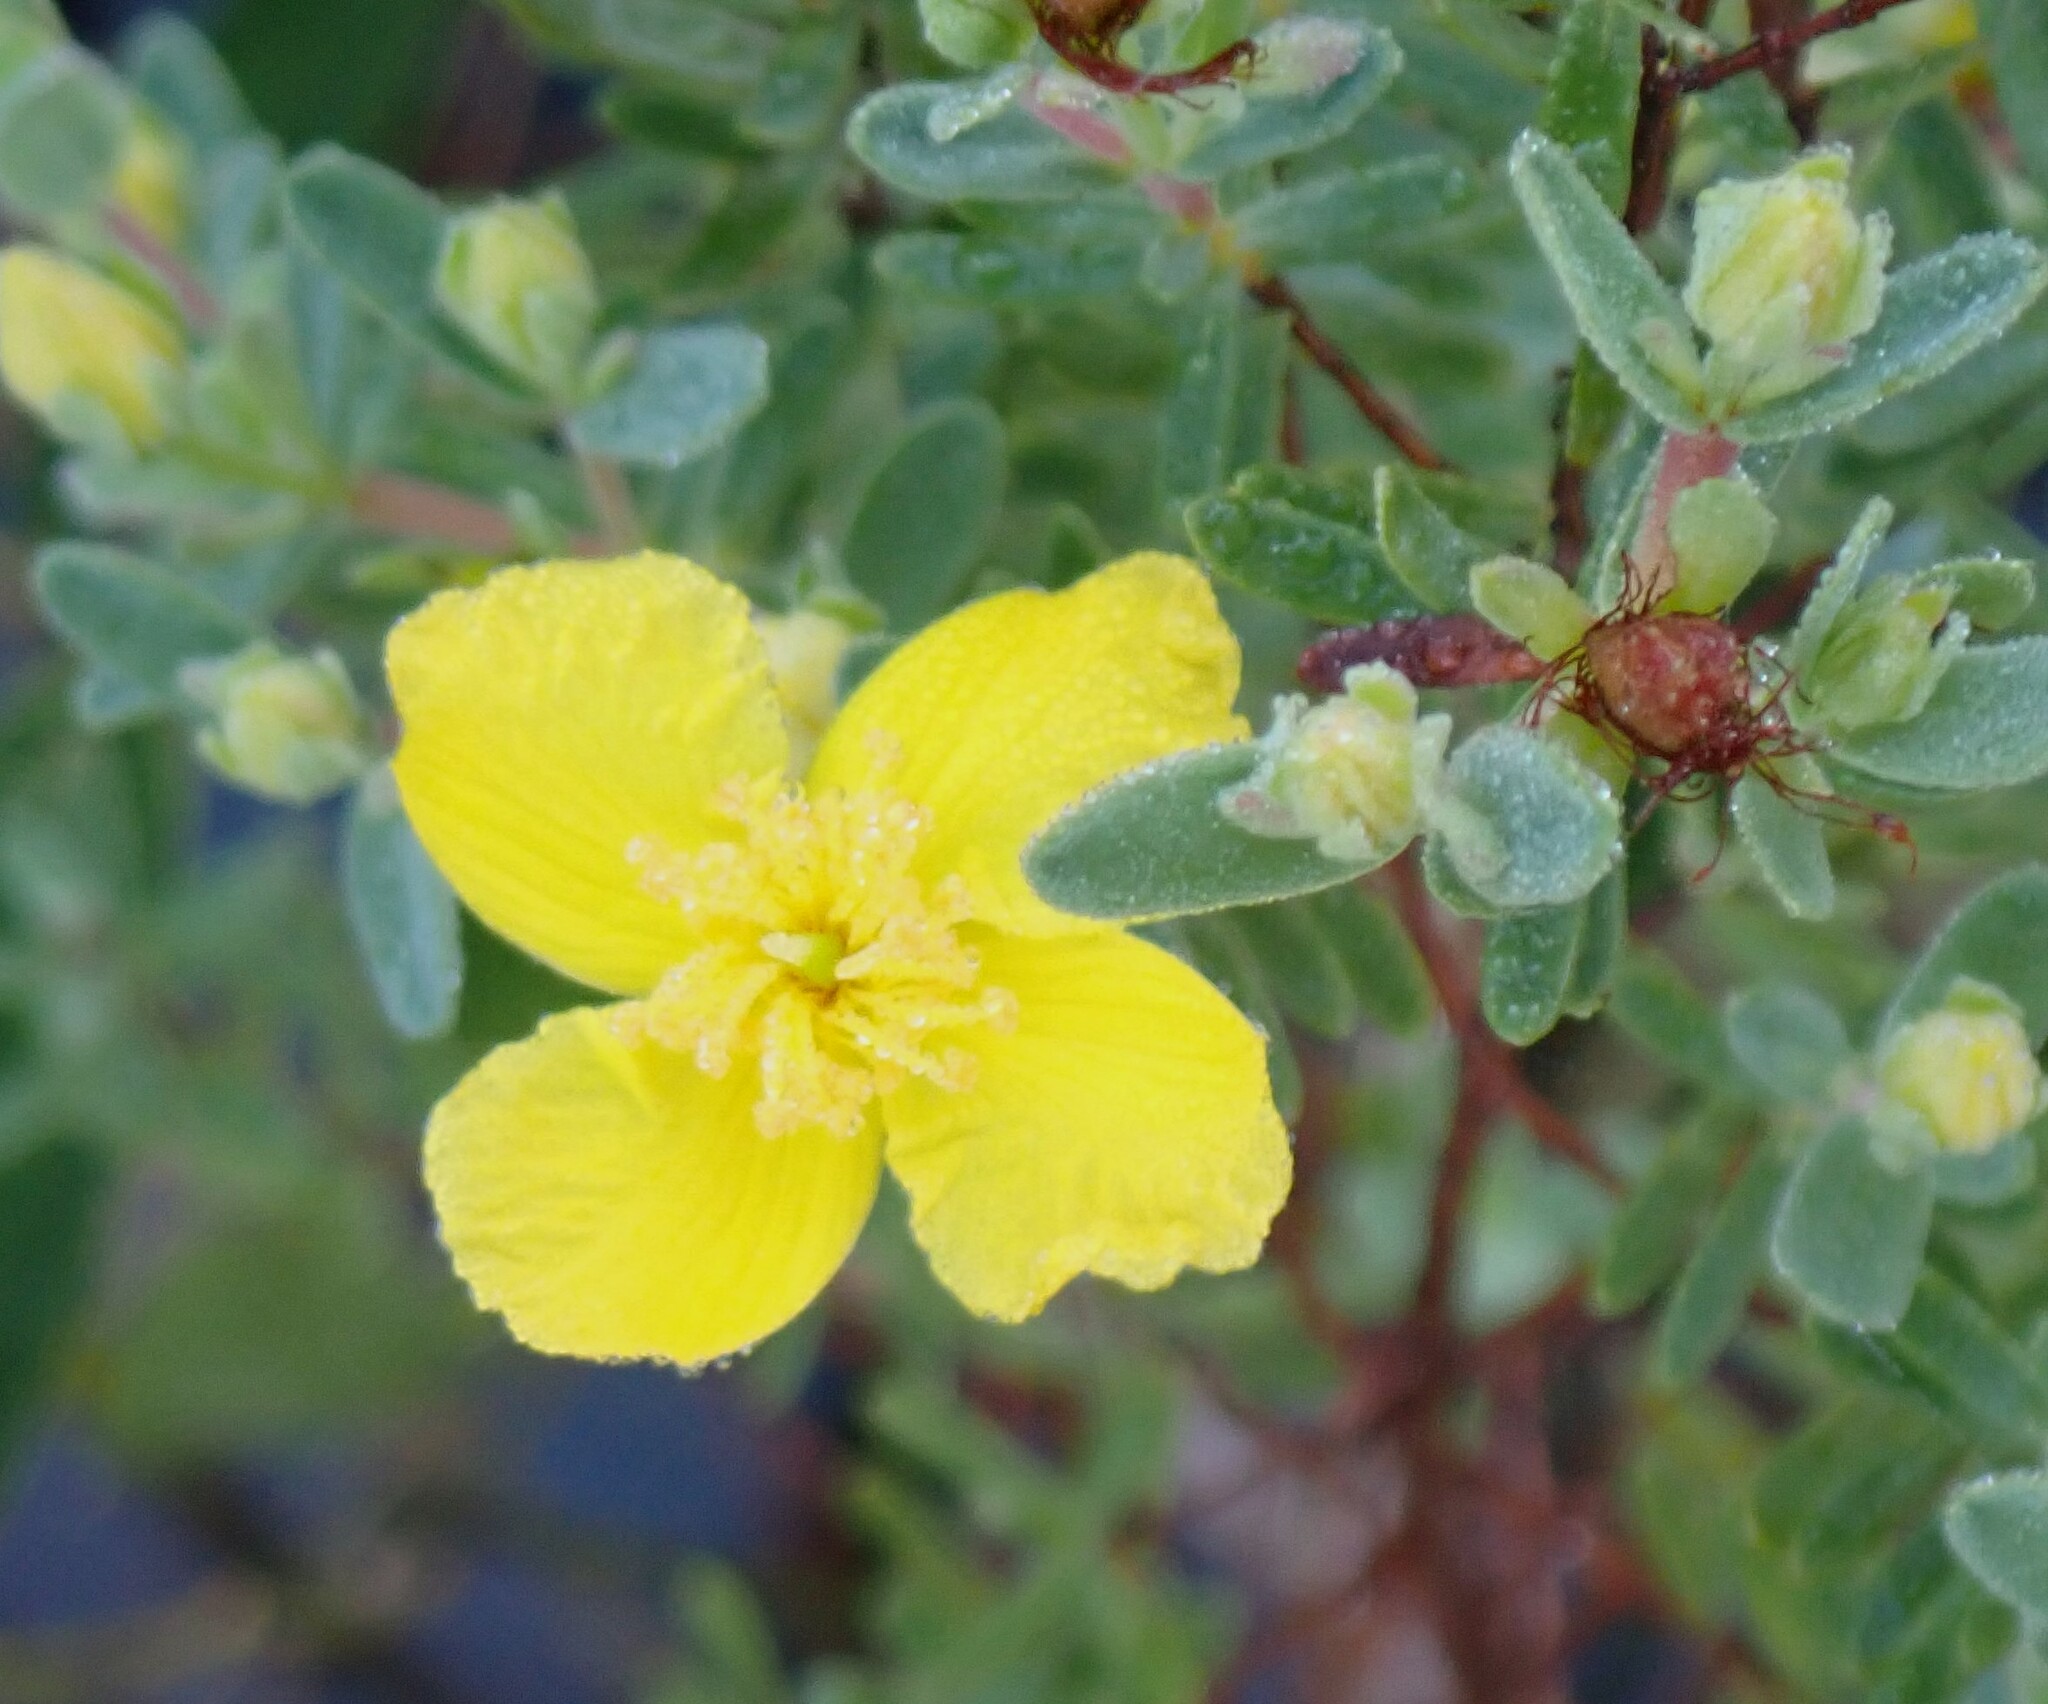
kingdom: Plantae
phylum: Tracheophyta
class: Magnoliopsida
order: Malpighiales
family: Hypericaceae
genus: Hypericum
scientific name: Hypericum microsepalum
